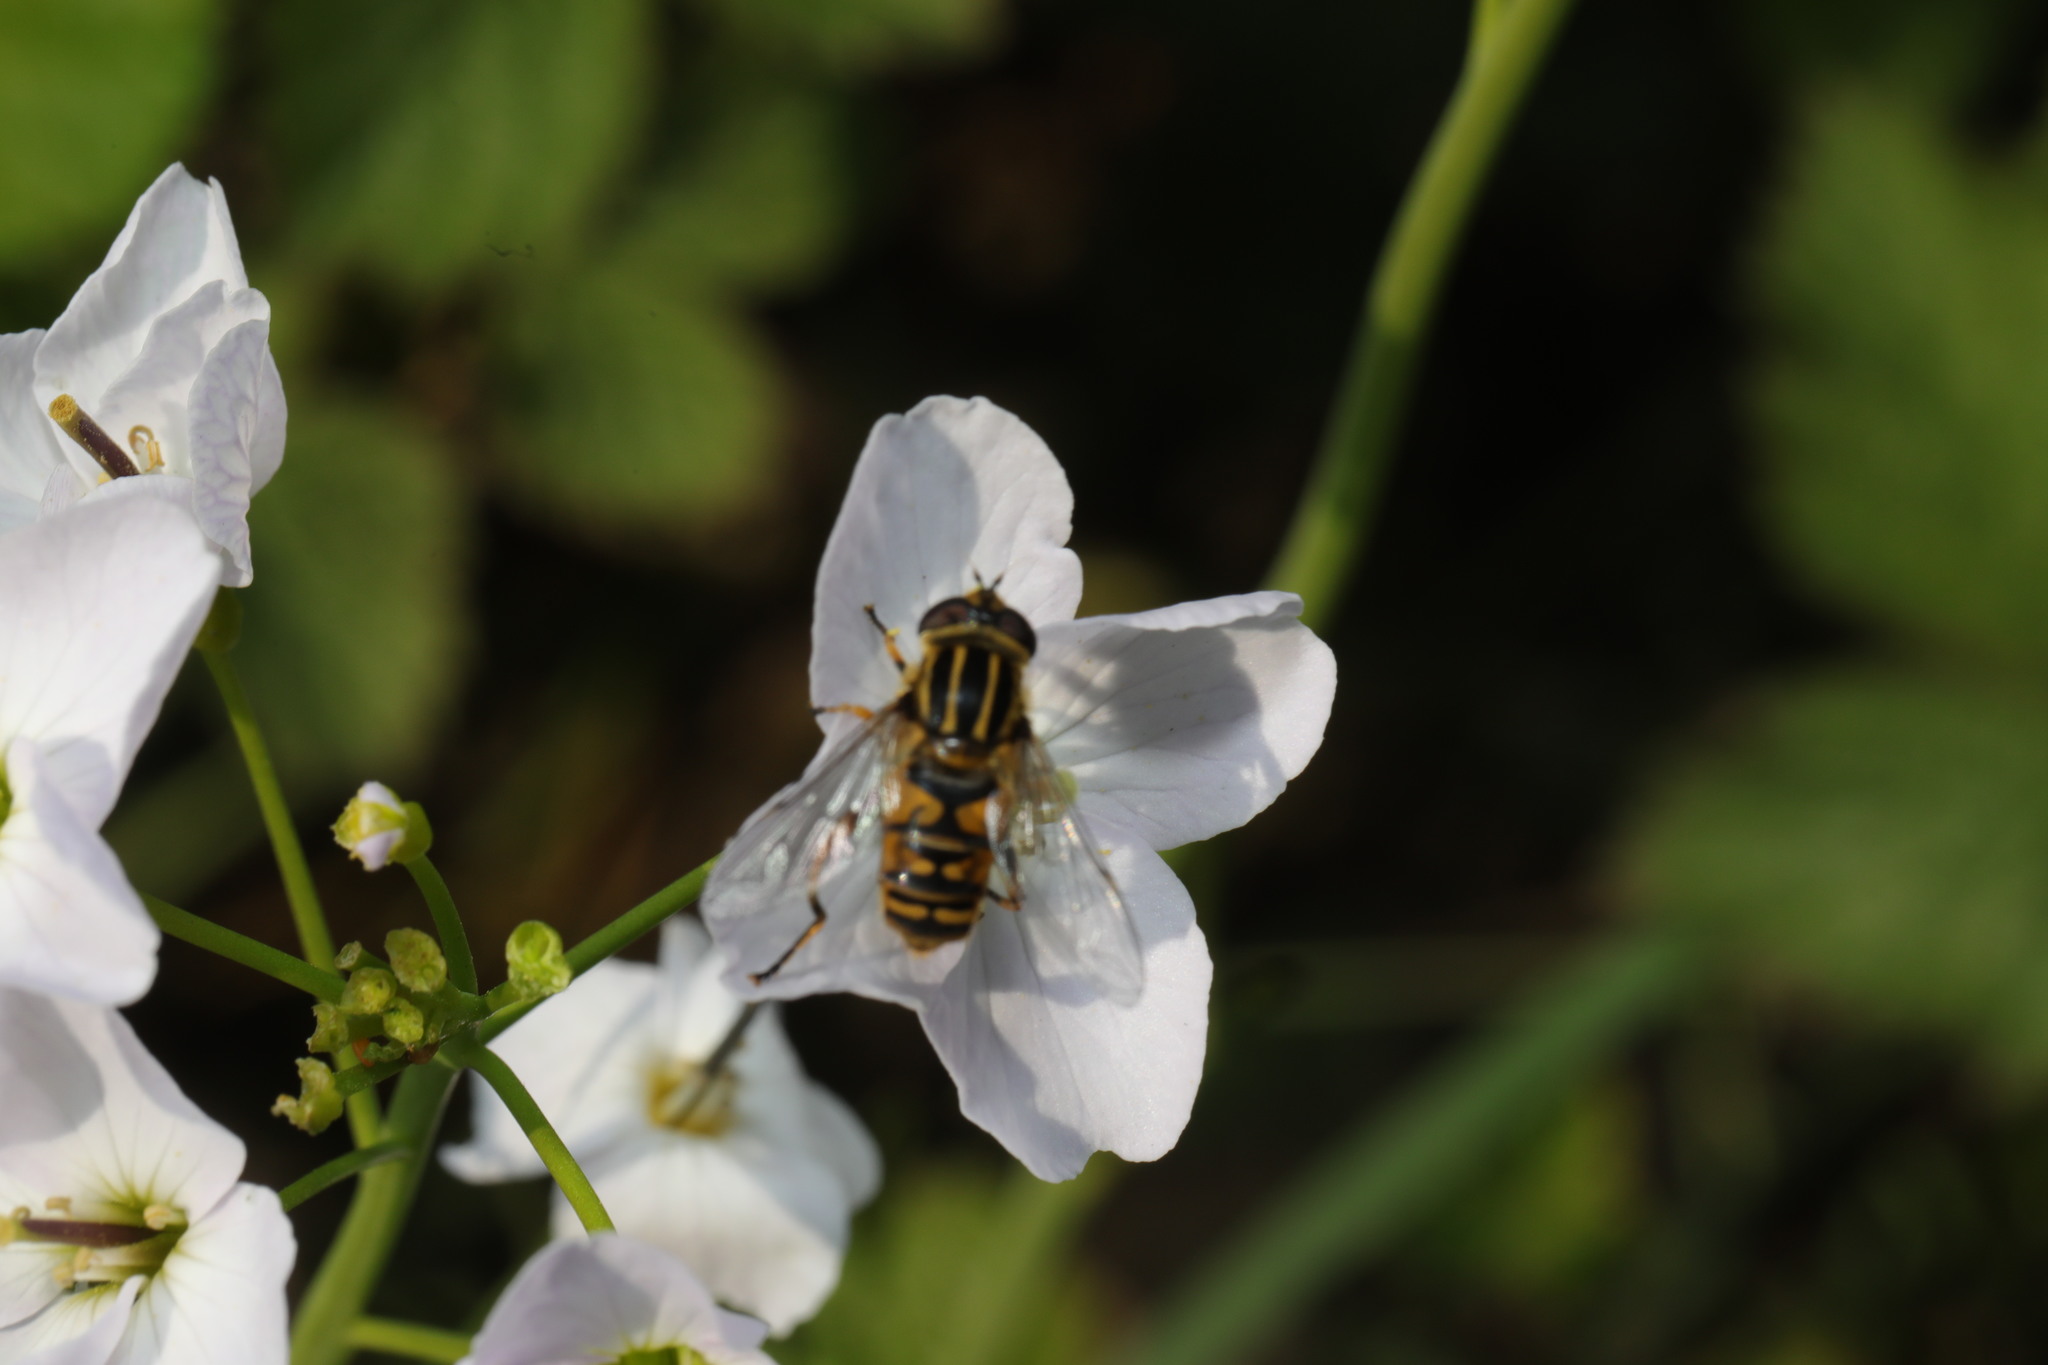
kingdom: Animalia
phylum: Arthropoda
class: Insecta
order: Diptera
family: Syrphidae
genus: Helophilus
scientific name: Helophilus pendulus
